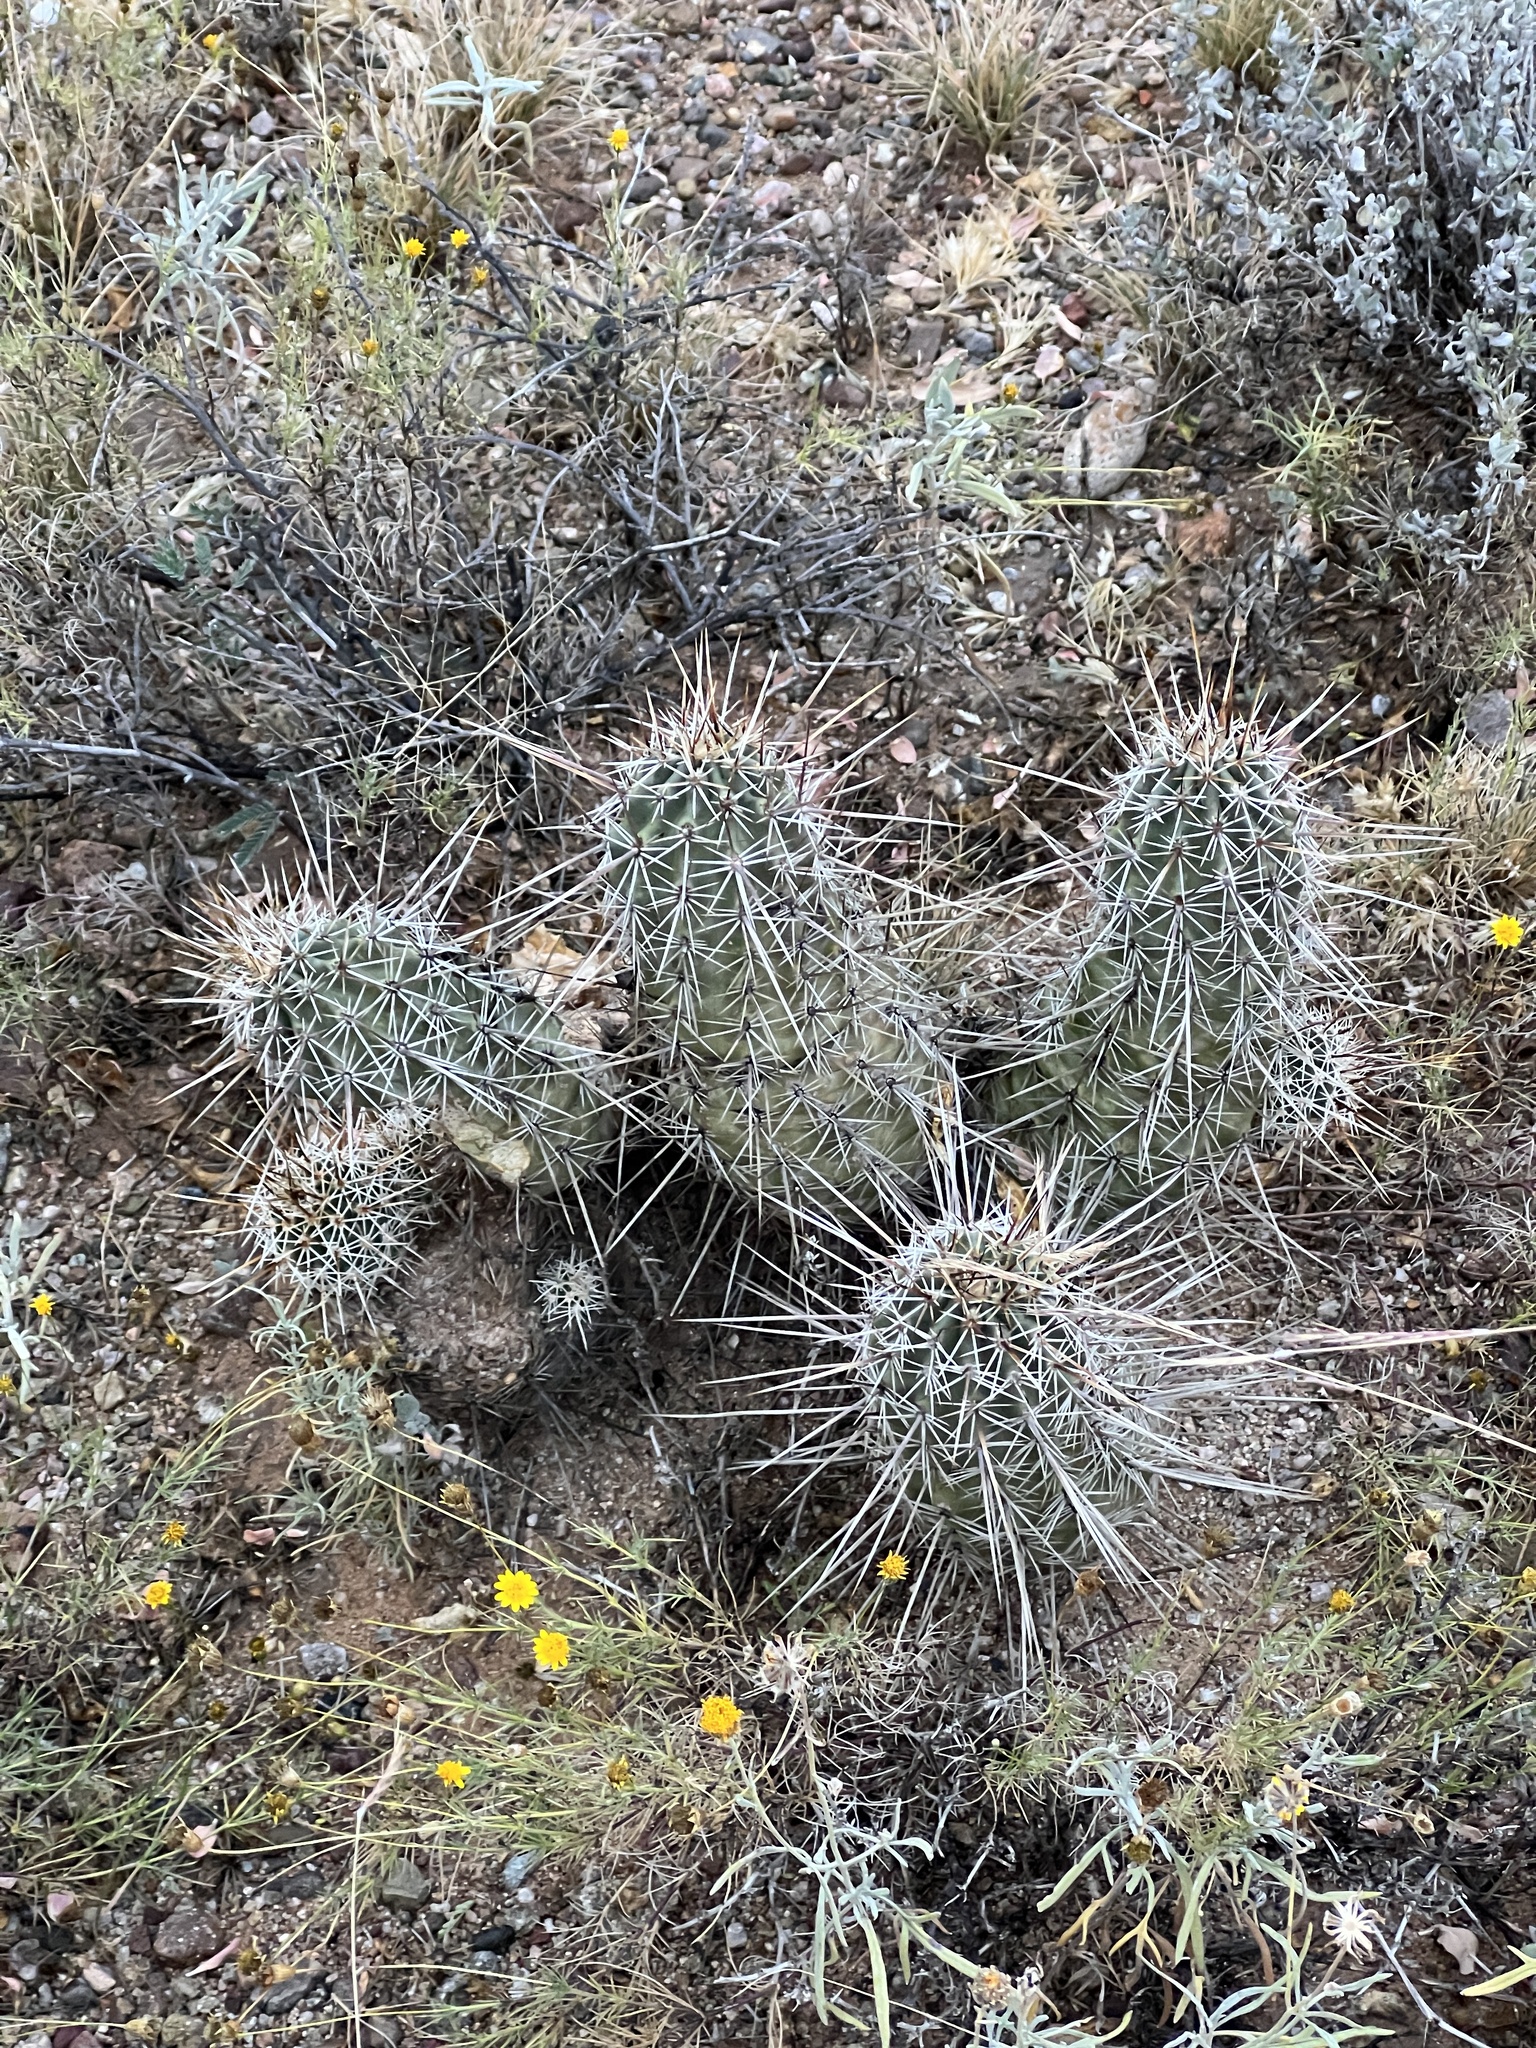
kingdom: Plantae
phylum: Tracheophyta
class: Magnoliopsida
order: Caryophyllales
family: Cactaceae
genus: Echinocereus
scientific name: Echinocereus fasciculatus
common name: Bundle hedgehog
